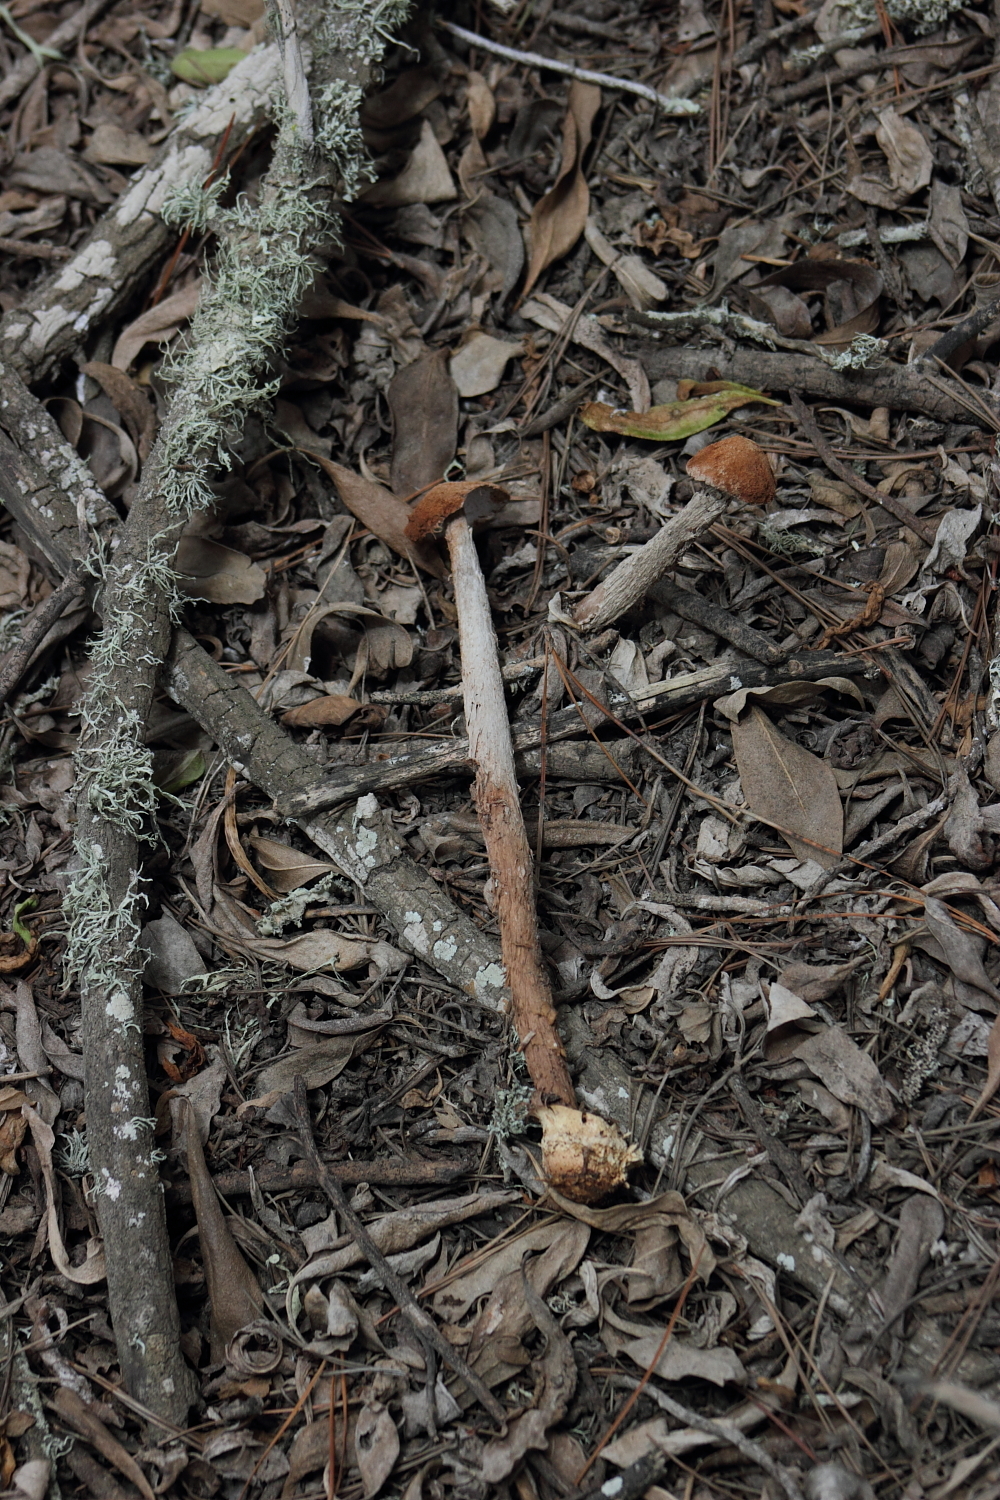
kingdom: Fungi
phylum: Basidiomycota
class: Agaricomycetes
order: Agaricales
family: Agaricaceae
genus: Battarrea
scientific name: Battarrea phalloides
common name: Sandy stiltball
